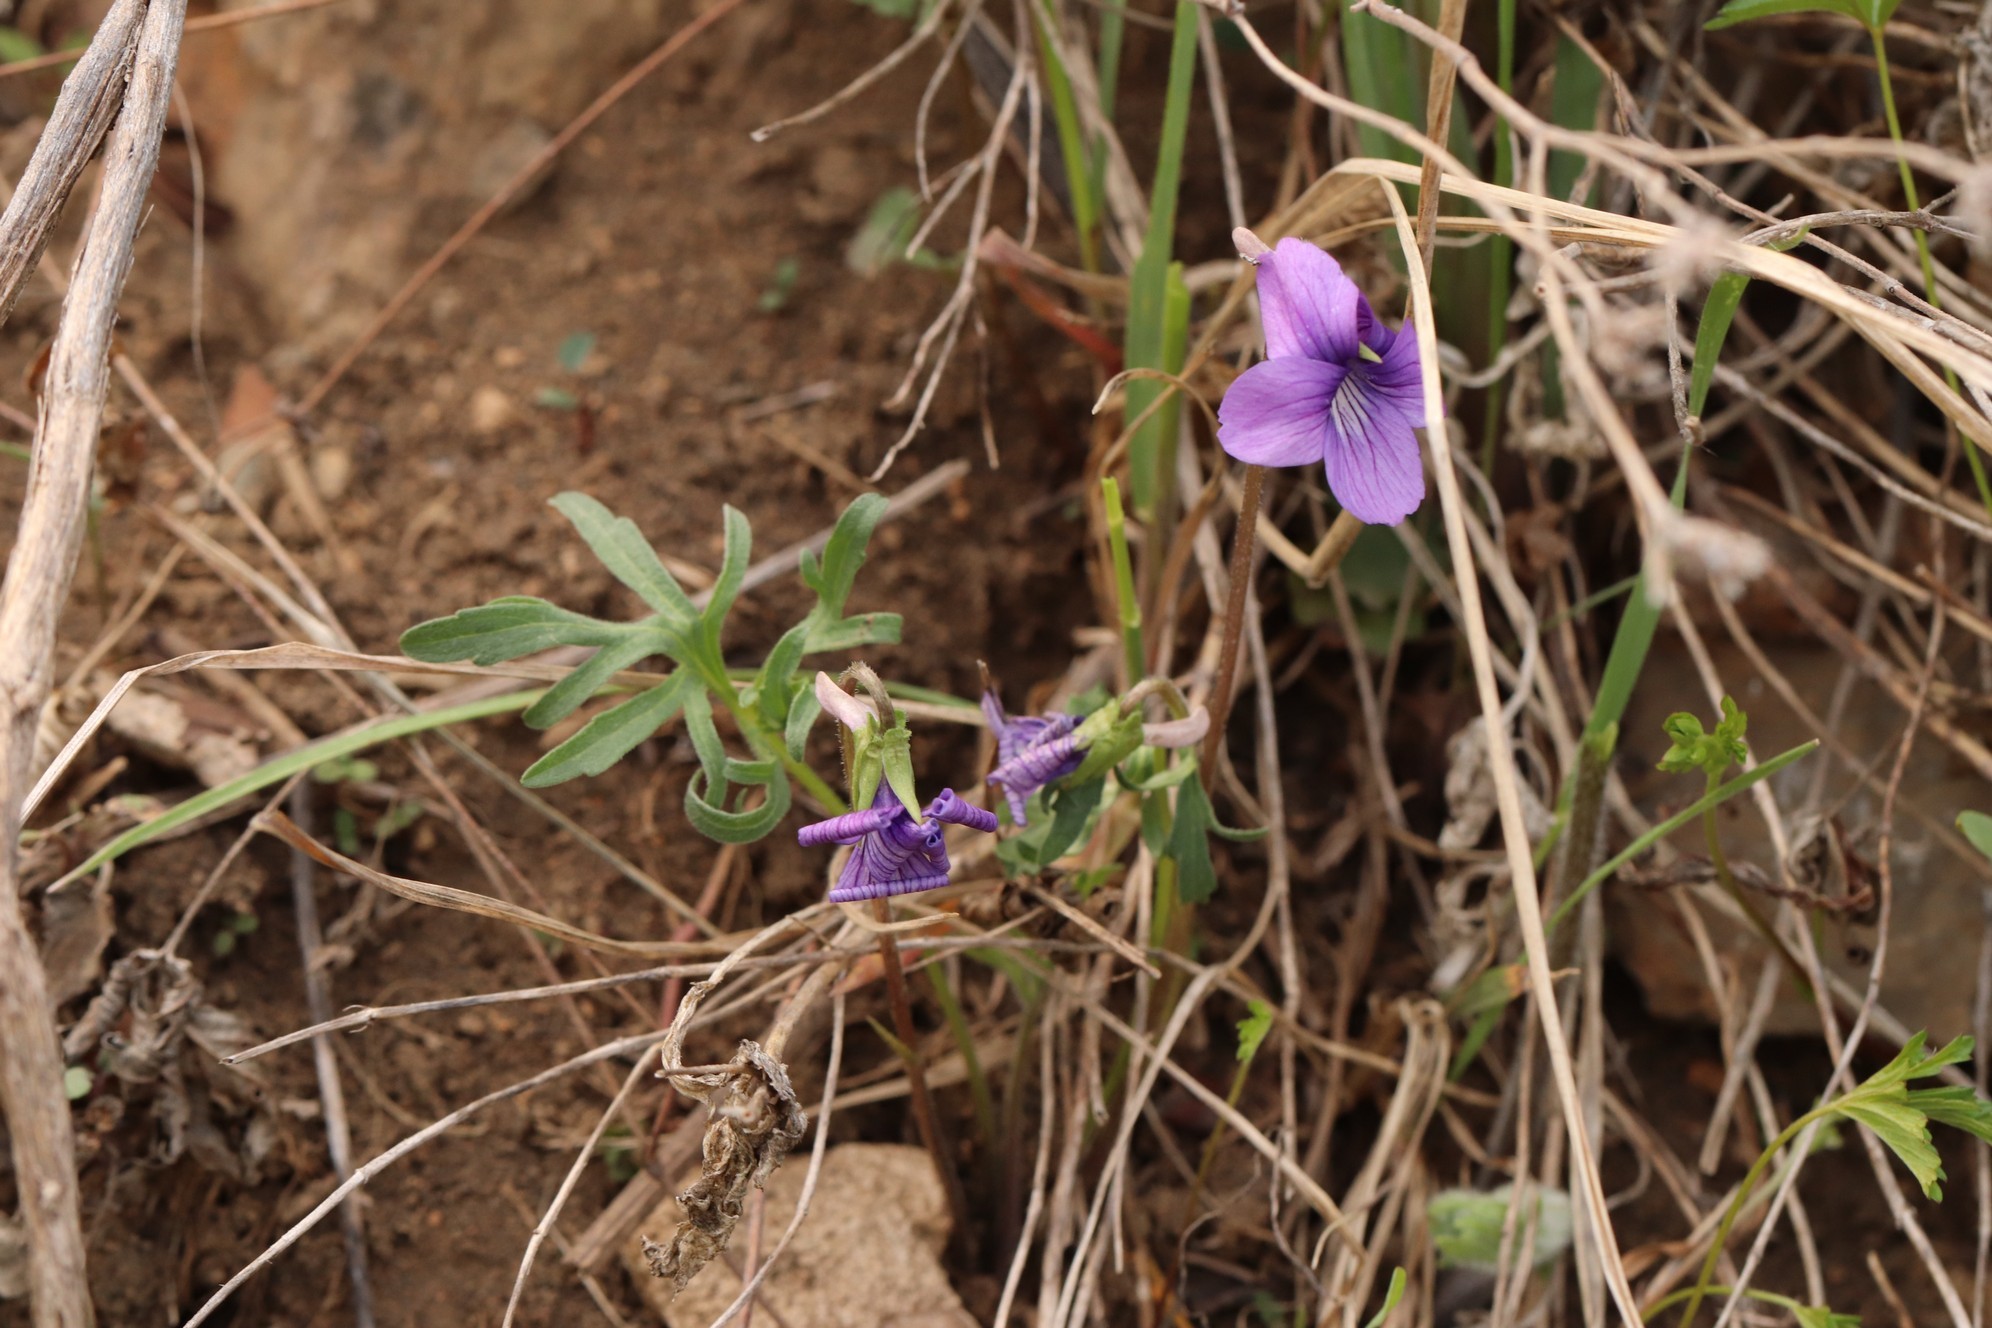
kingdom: Plantae
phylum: Tracheophyta
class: Magnoliopsida
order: Malpighiales
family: Violaceae
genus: Viola
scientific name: Viola multifida
